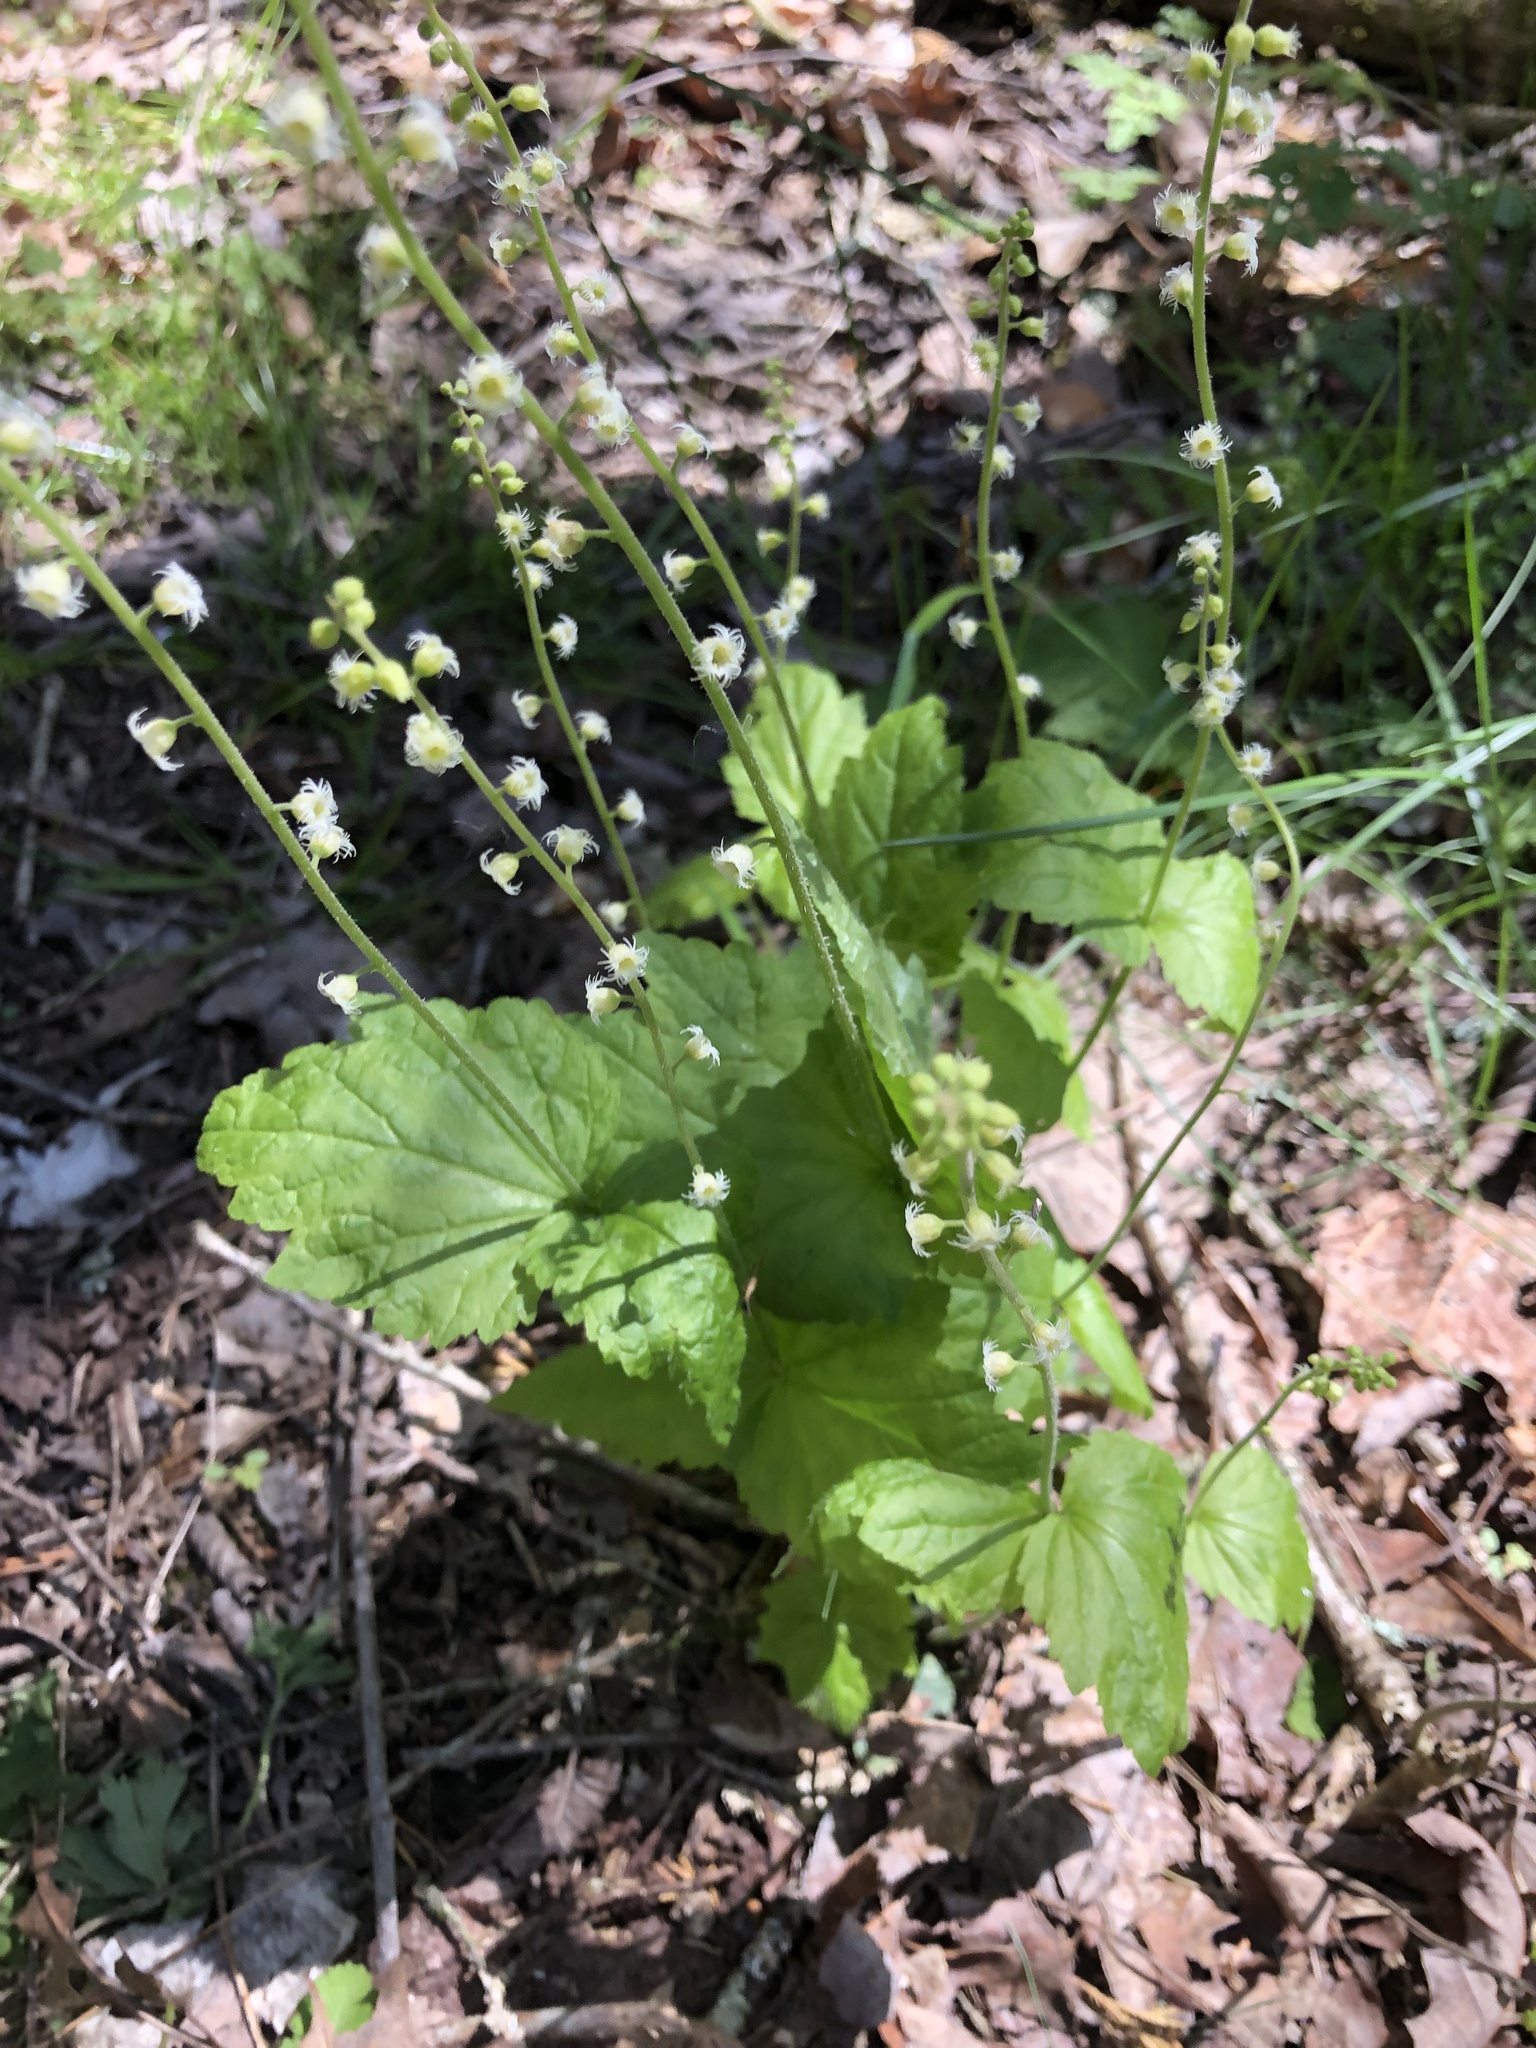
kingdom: Plantae
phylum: Tracheophyta
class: Magnoliopsida
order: Saxifragales
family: Saxifragaceae
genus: Mitella
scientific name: Mitella diphylla
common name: Coolwort
